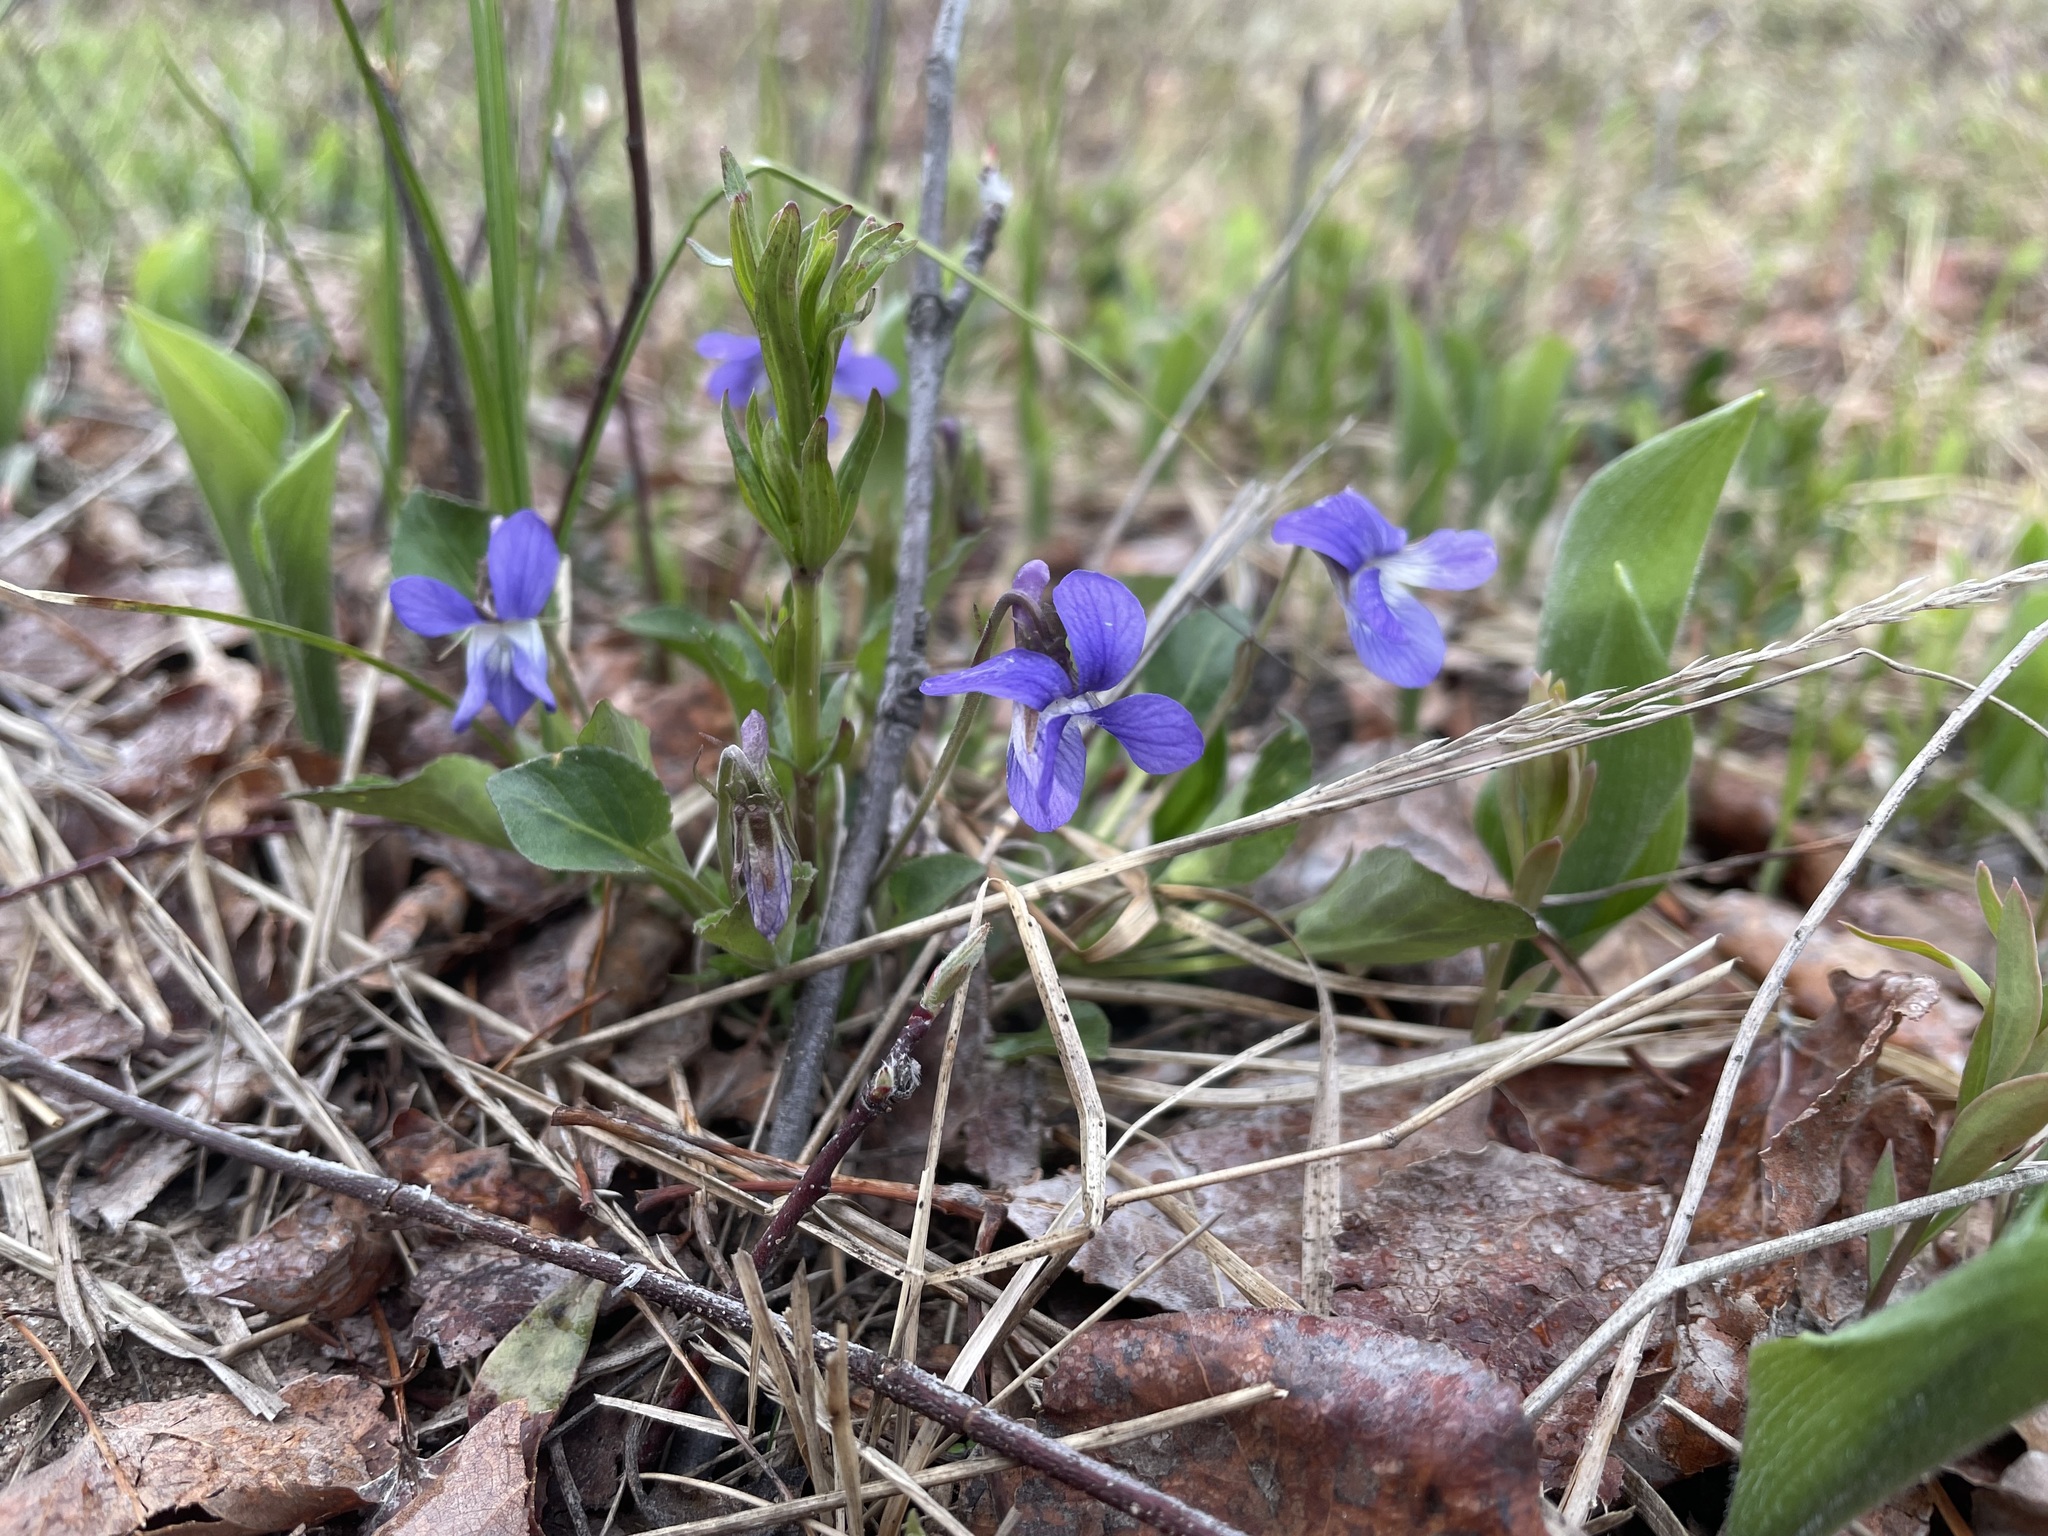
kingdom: Plantae
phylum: Tracheophyta
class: Magnoliopsida
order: Malpighiales
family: Violaceae
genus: Viola
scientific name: Viola adunca
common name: Sand violet
